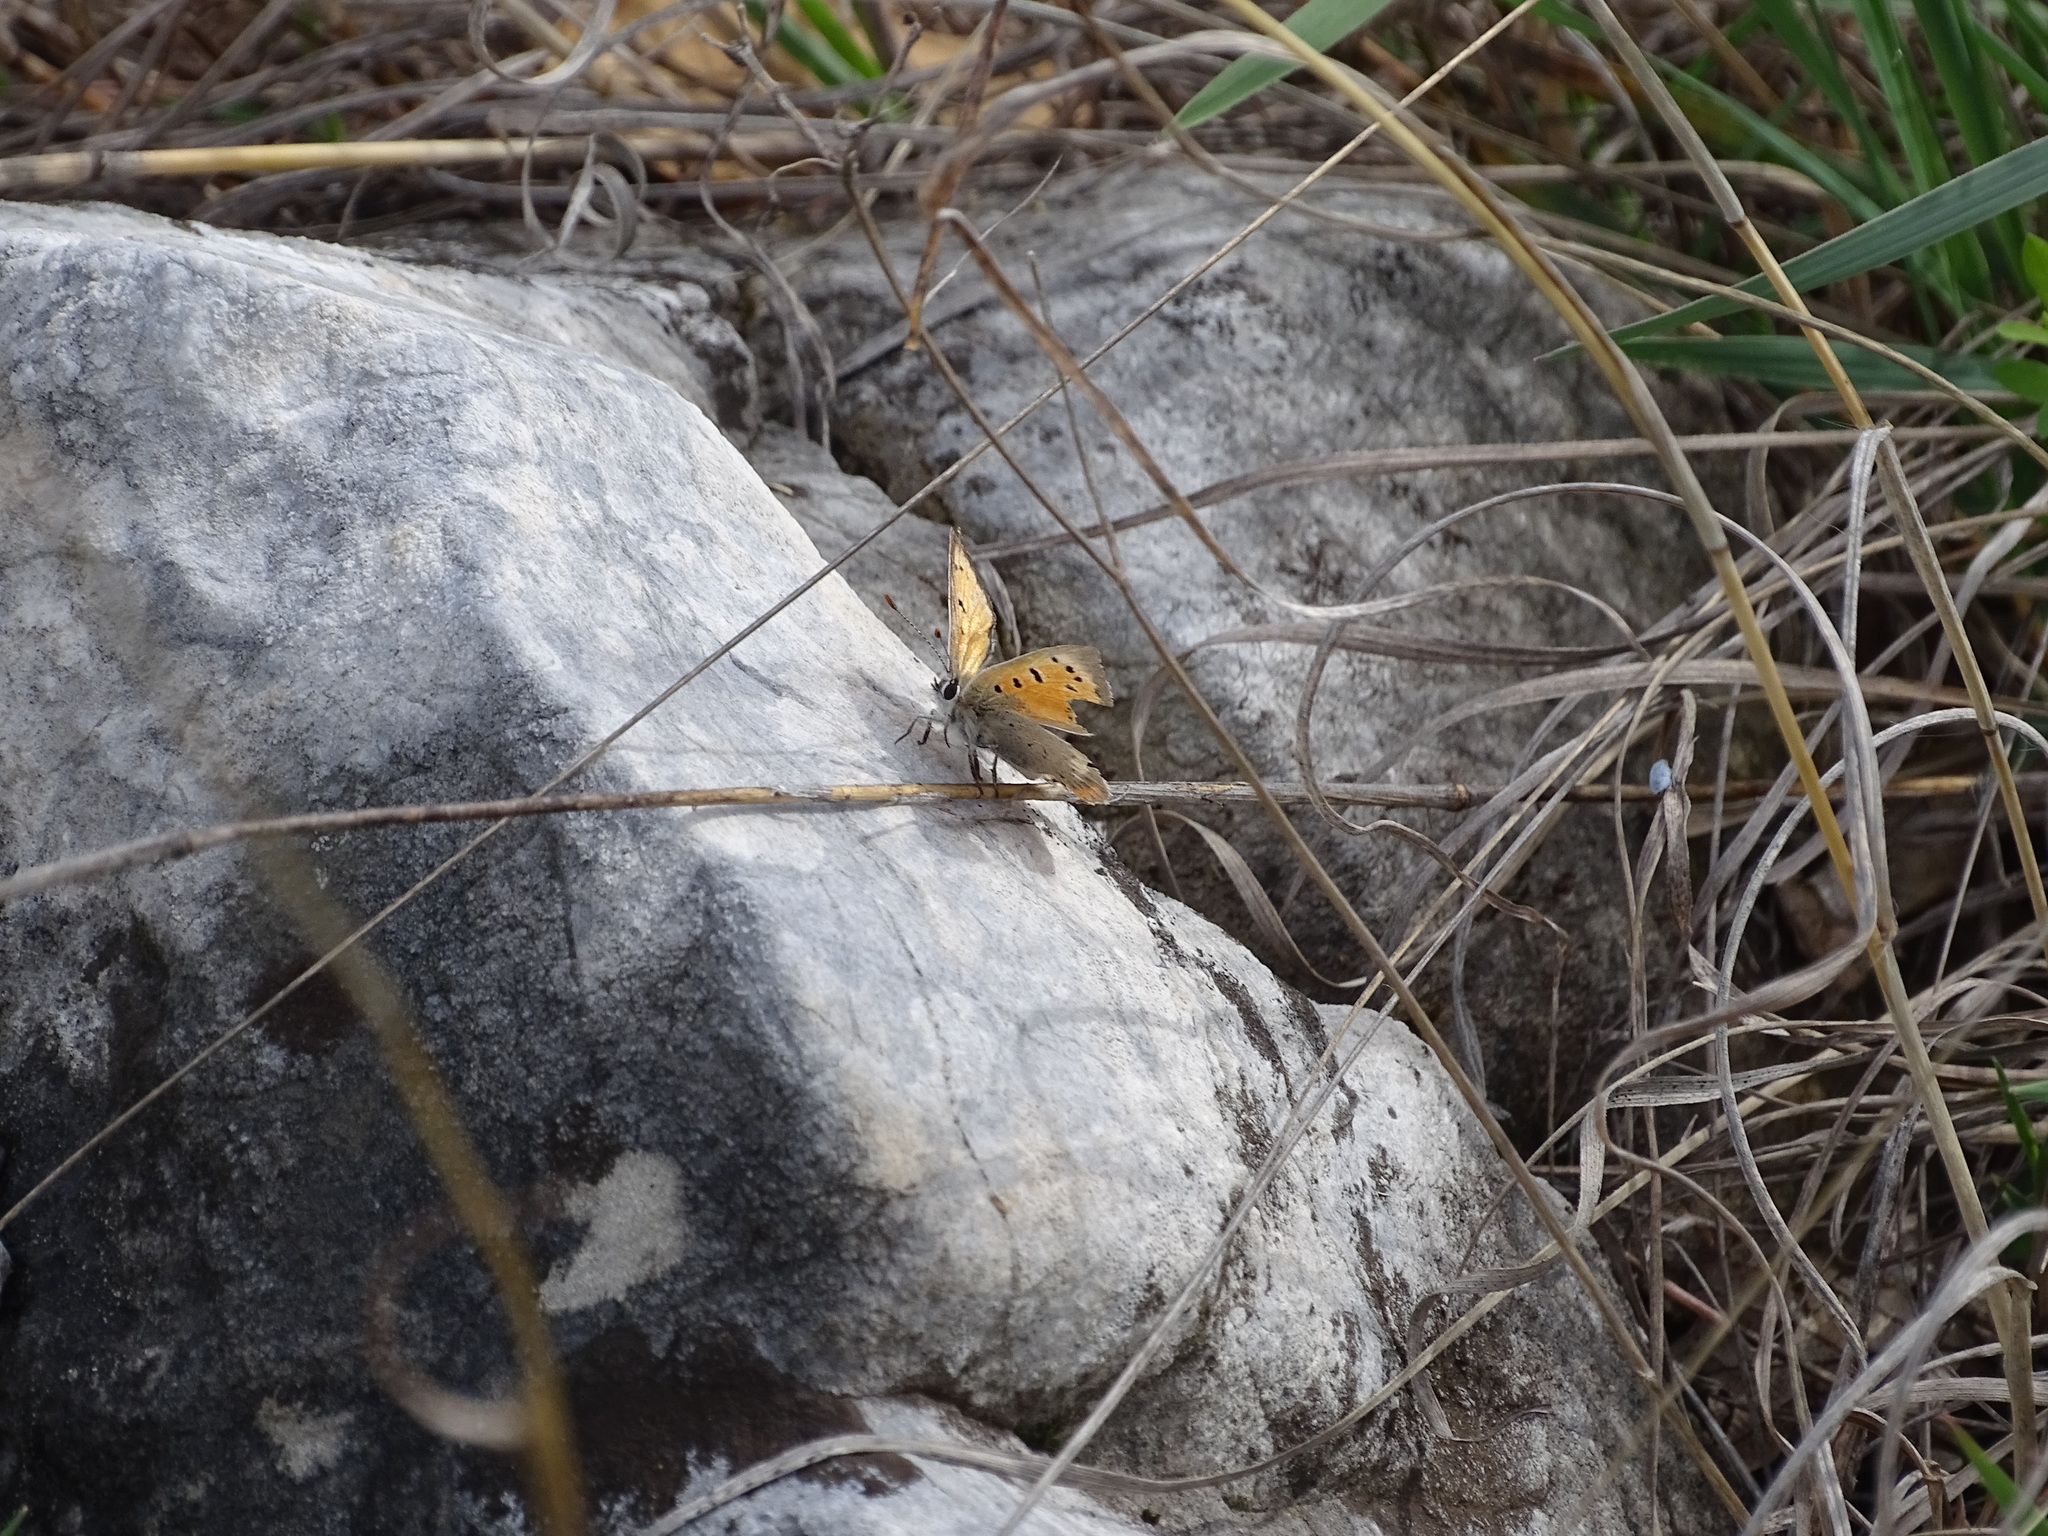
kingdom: Animalia
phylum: Arthropoda
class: Insecta
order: Lepidoptera
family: Lycaenidae
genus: Lycaena
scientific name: Lycaena phlaeas
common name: Small copper
